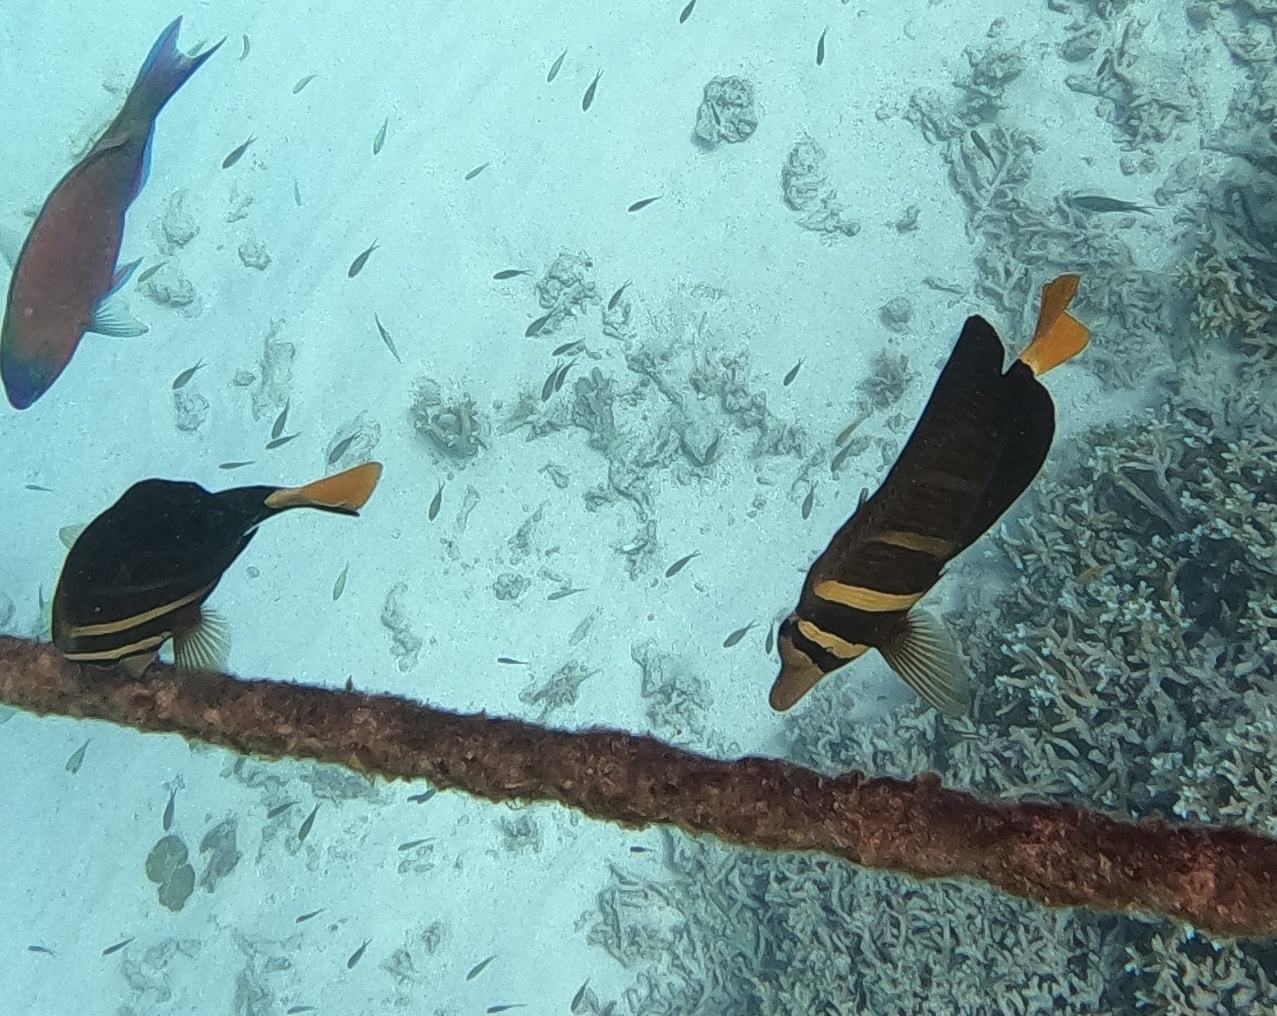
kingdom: Animalia
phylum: Chordata
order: Perciformes
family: Acanthuridae
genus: Zebrasoma
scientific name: Zebrasoma veliferum
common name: Sailfin surgeonfish
